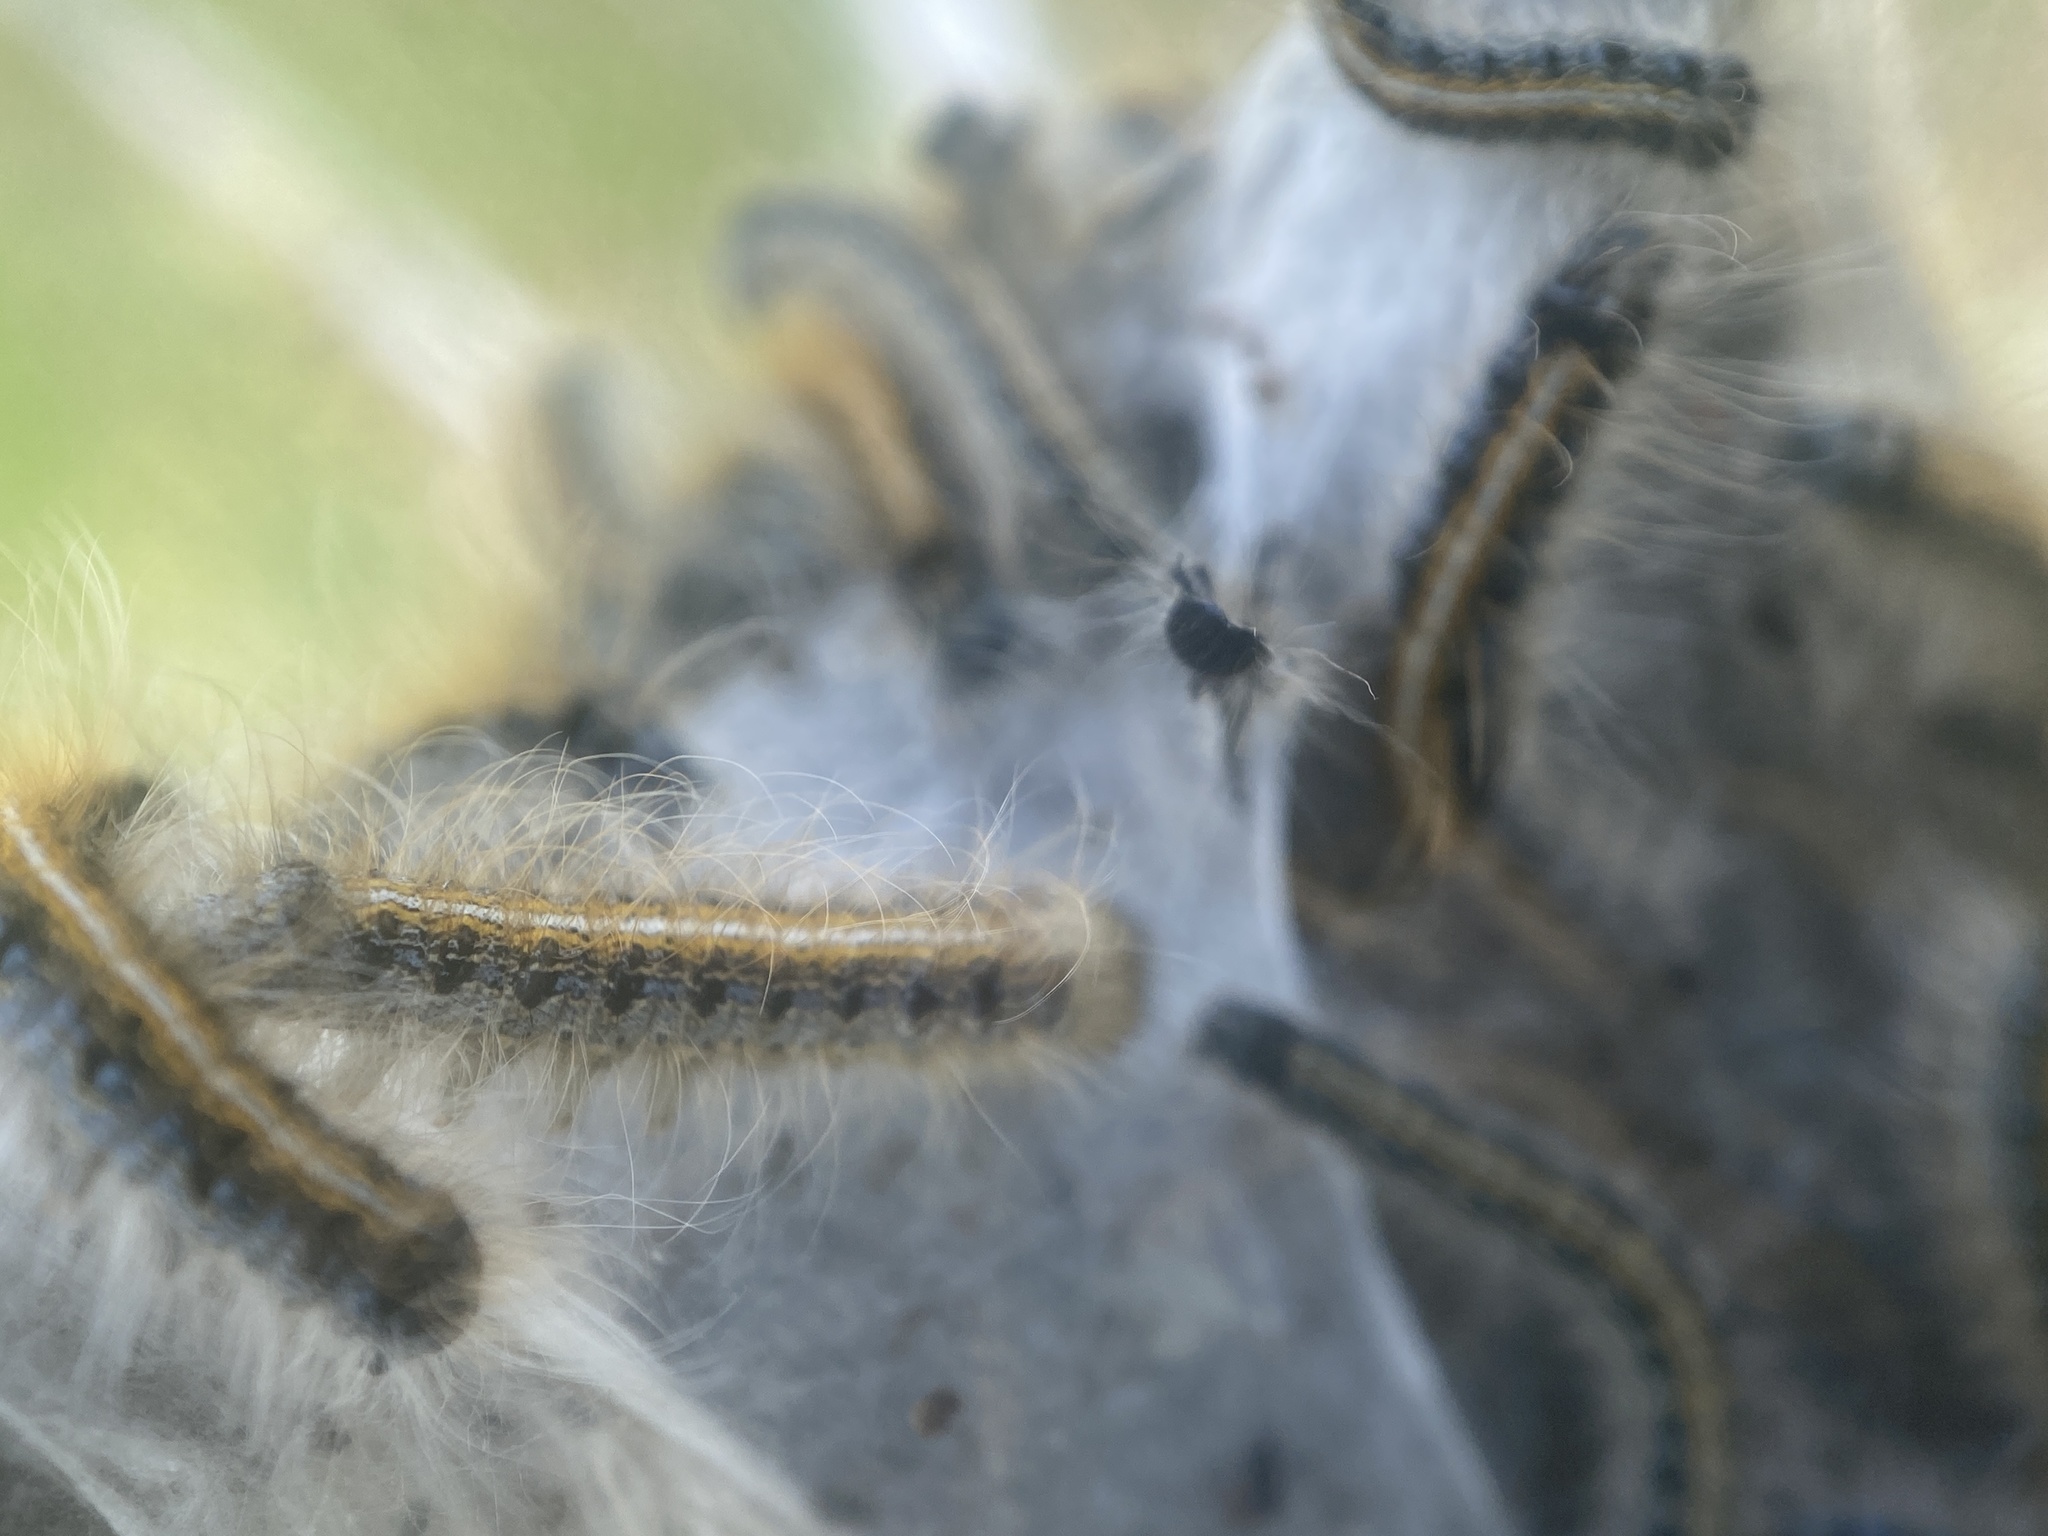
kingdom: Animalia
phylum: Arthropoda
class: Insecta
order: Lepidoptera
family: Lasiocampidae
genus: Malacosoma
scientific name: Malacosoma americana
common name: Eastern tent caterpillar moth
